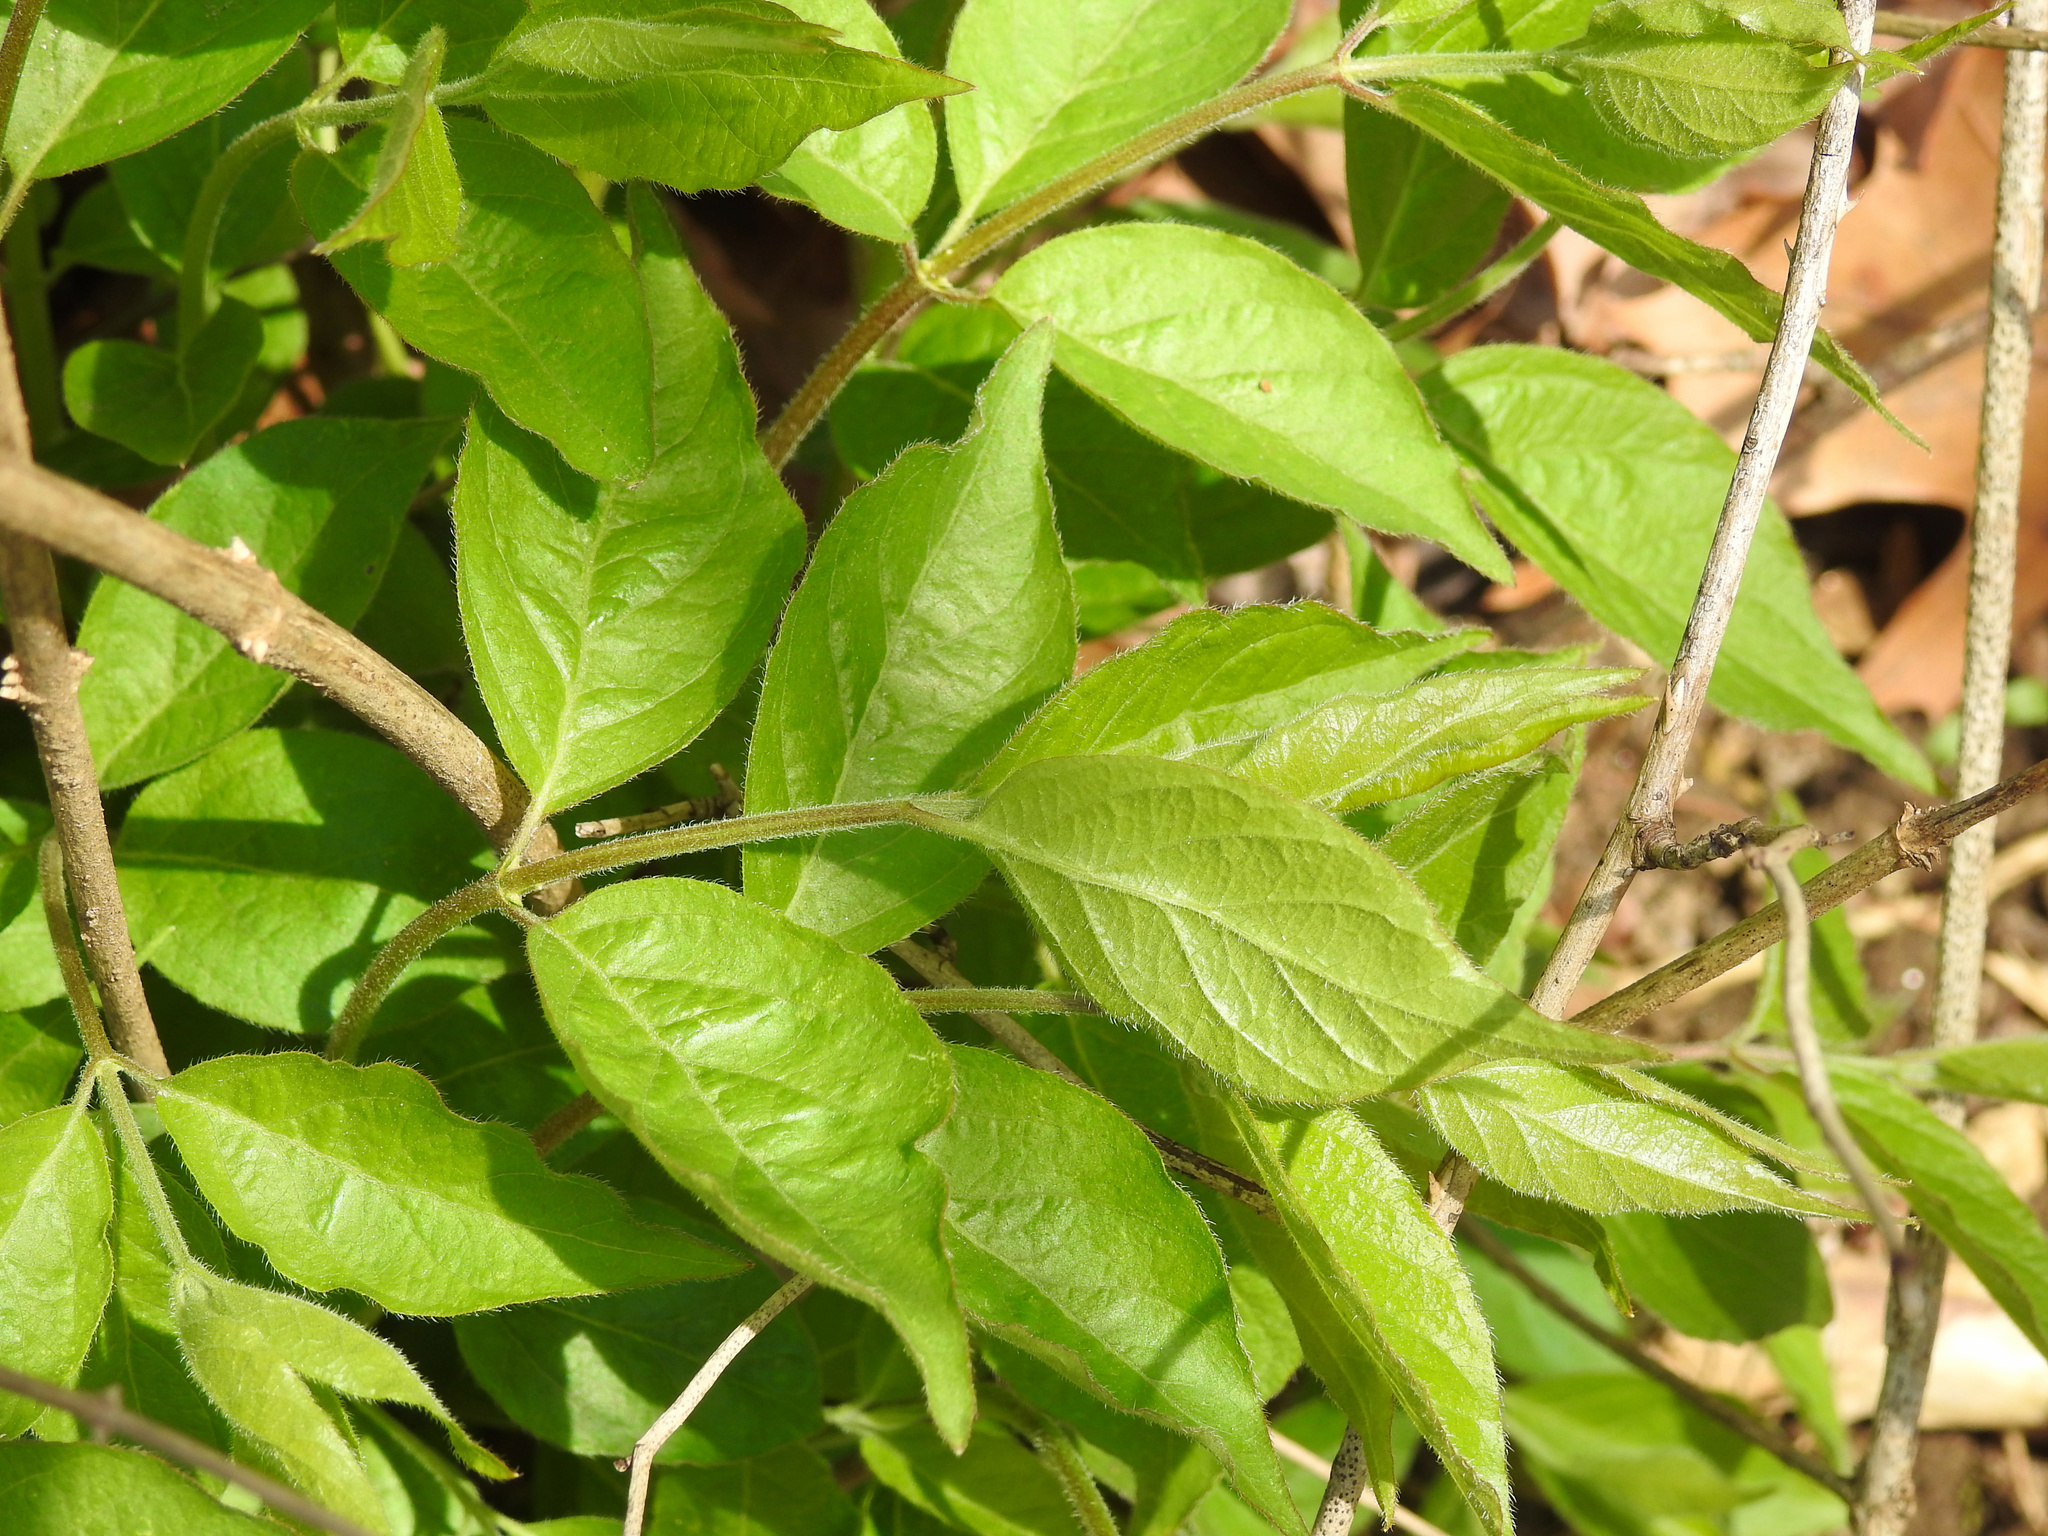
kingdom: Plantae
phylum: Tracheophyta
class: Magnoliopsida
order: Dipsacales
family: Caprifoliaceae
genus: Lonicera
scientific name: Lonicera maackii
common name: Amur honeysuckle
